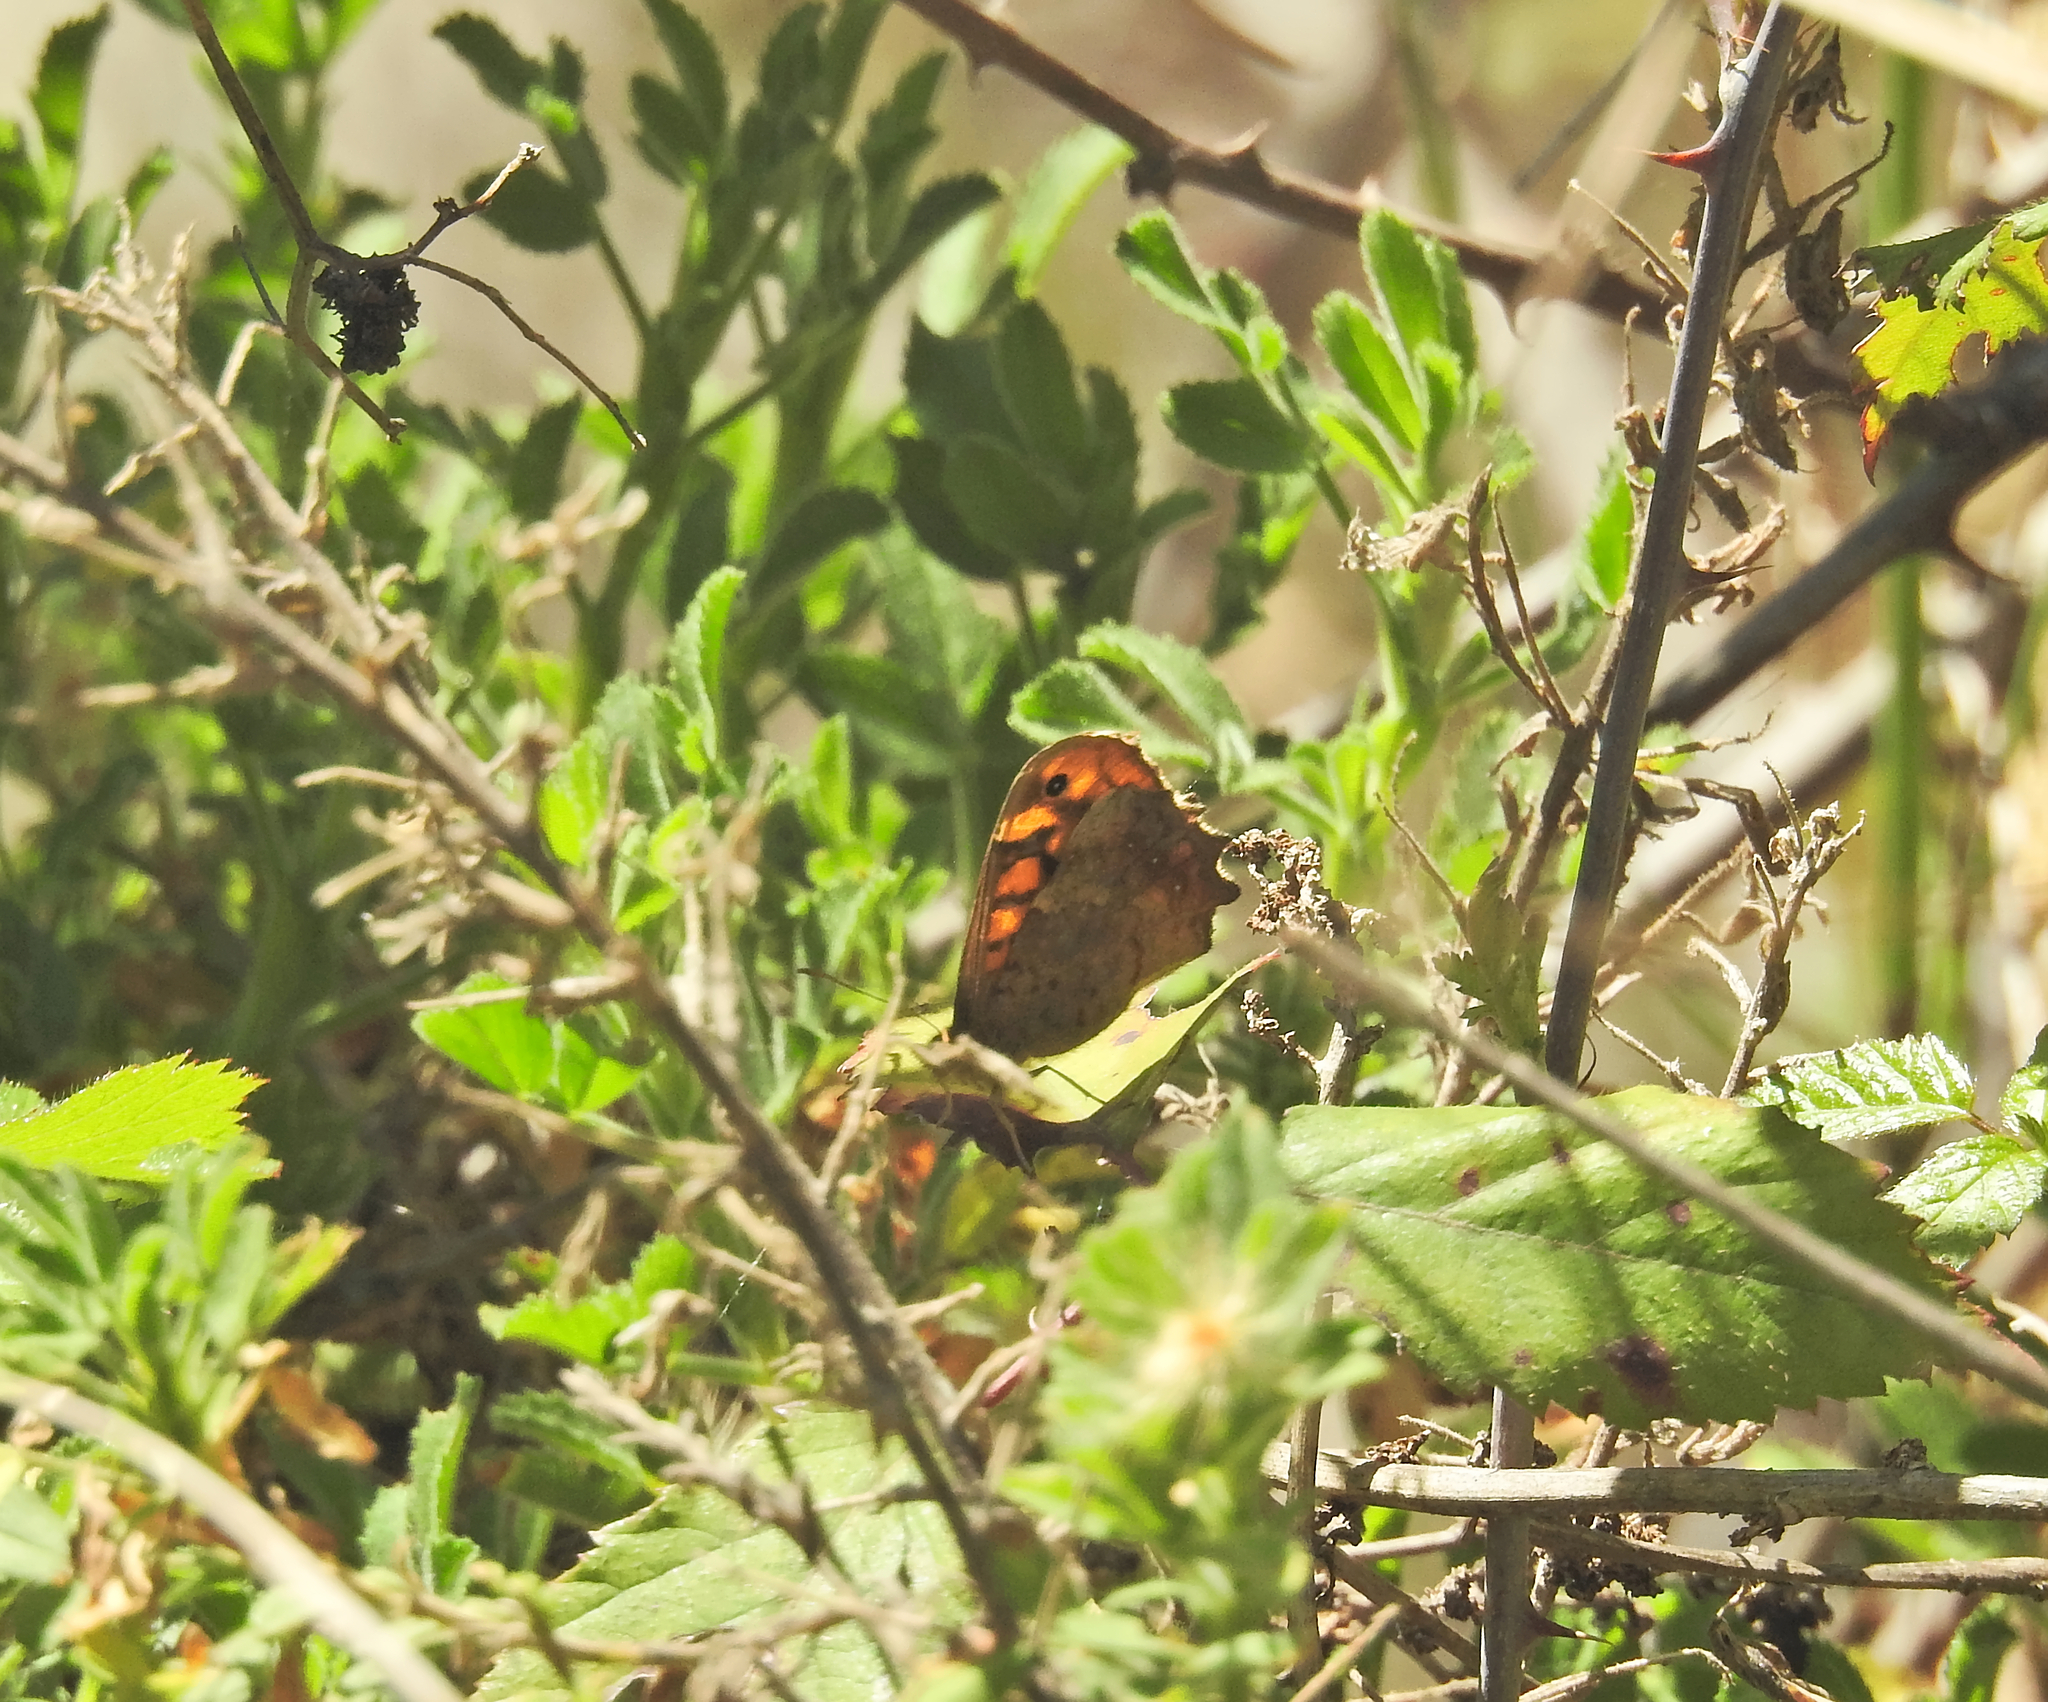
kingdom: Animalia
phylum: Arthropoda
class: Insecta
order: Lepidoptera
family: Nymphalidae
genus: Pararge
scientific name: Pararge aegeria
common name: Speckled wood
